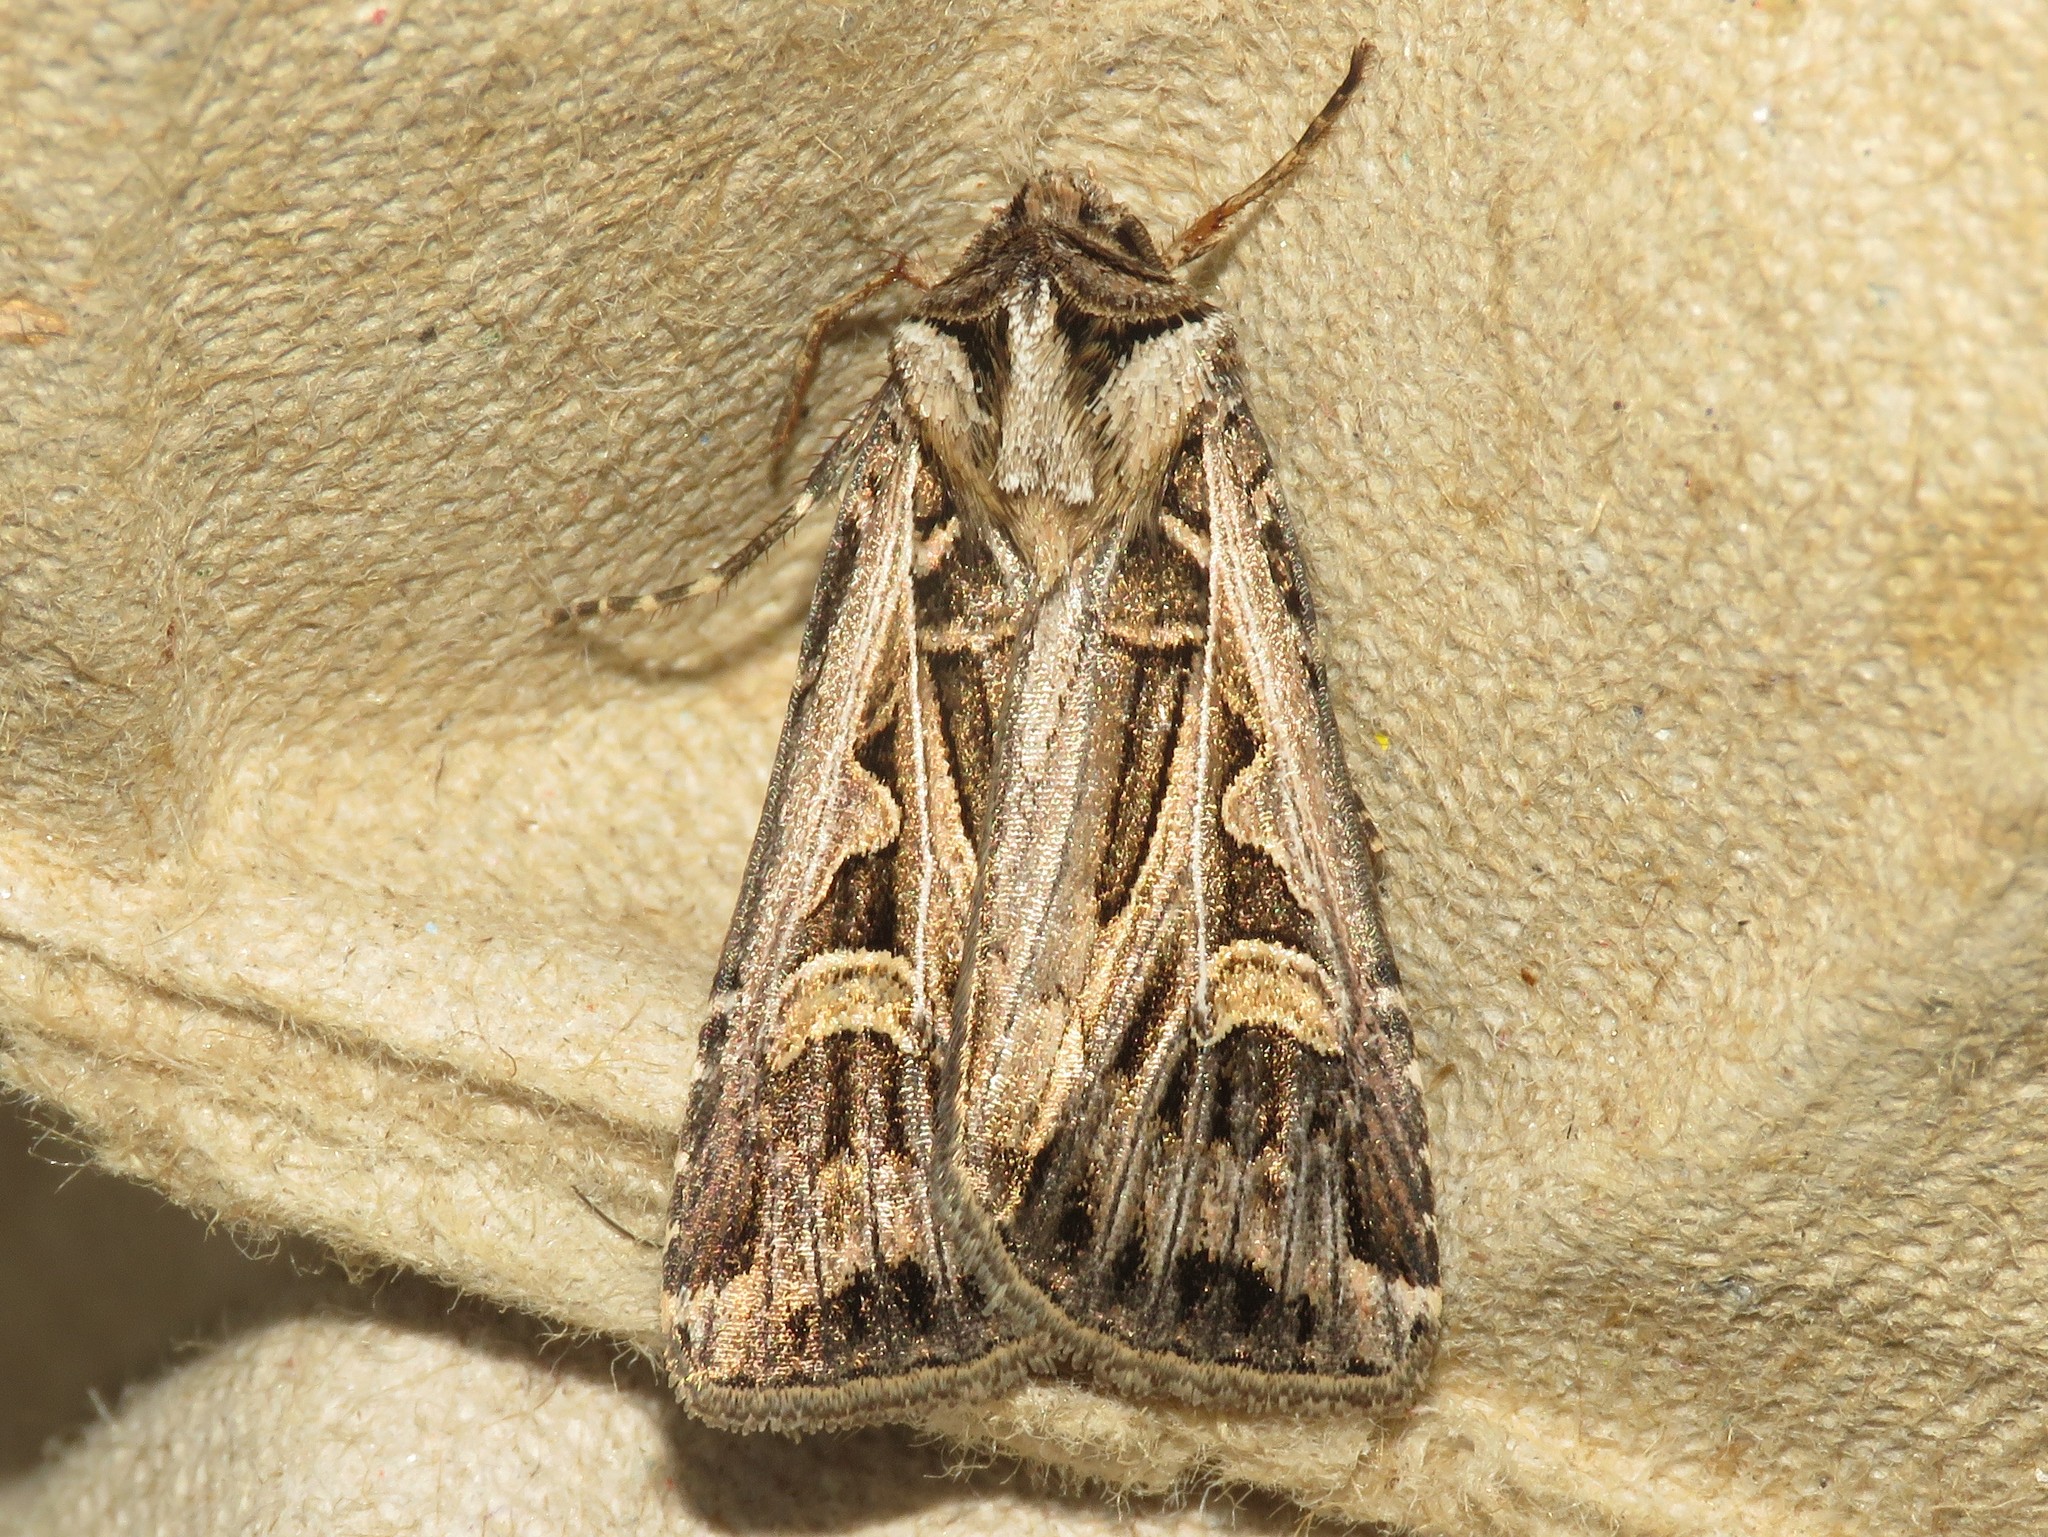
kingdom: Animalia
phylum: Arthropoda
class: Insecta
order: Lepidoptera
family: Noctuidae
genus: Feltia
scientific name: Feltia jaculifera
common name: Dingy cutworm moth
